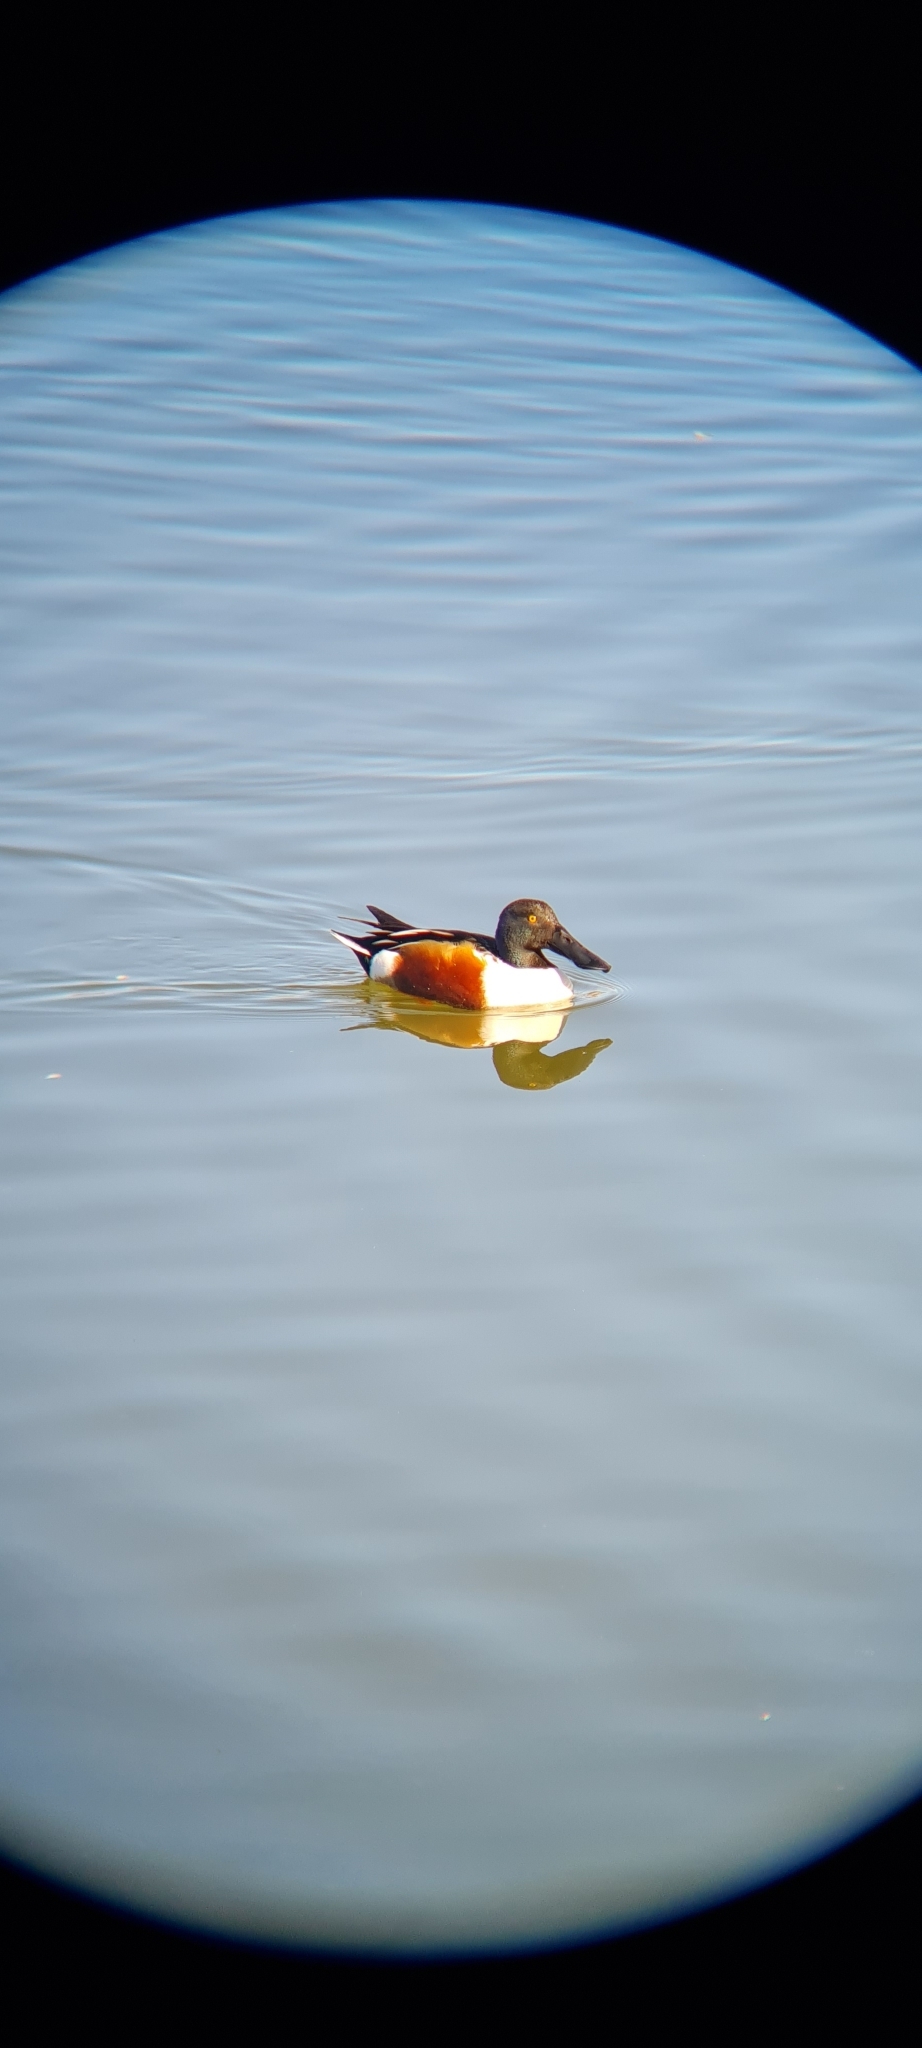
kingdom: Animalia
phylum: Chordata
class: Aves
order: Anseriformes
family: Anatidae
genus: Spatula
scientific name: Spatula clypeata
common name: Northern shoveler
